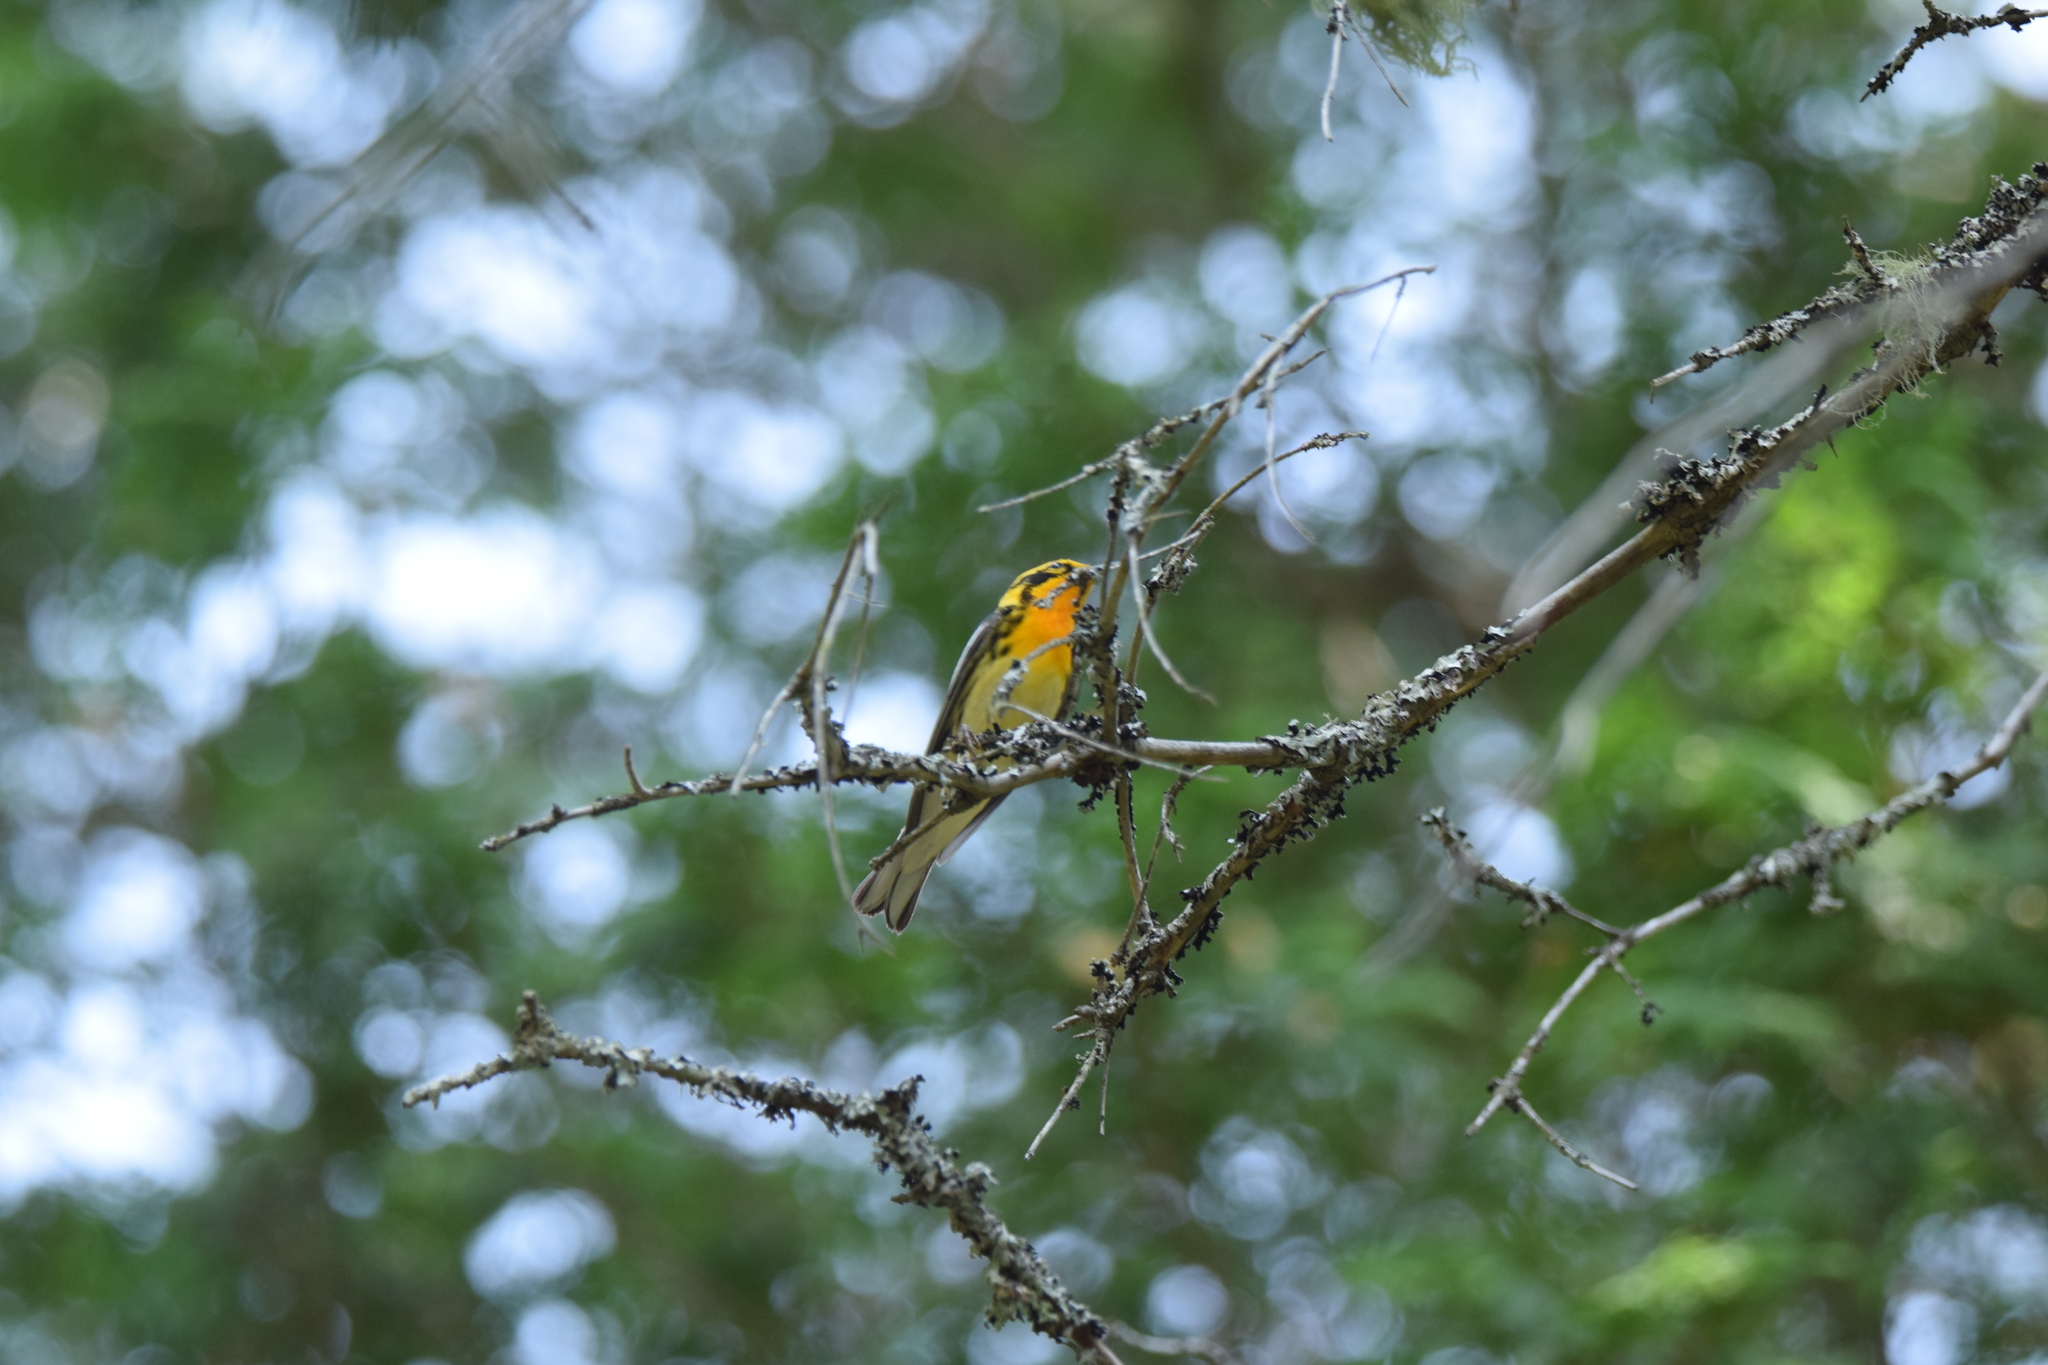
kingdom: Animalia
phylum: Chordata
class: Aves
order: Passeriformes
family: Parulidae
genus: Setophaga
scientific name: Setophaga fusca
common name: Blackburnian warbler
